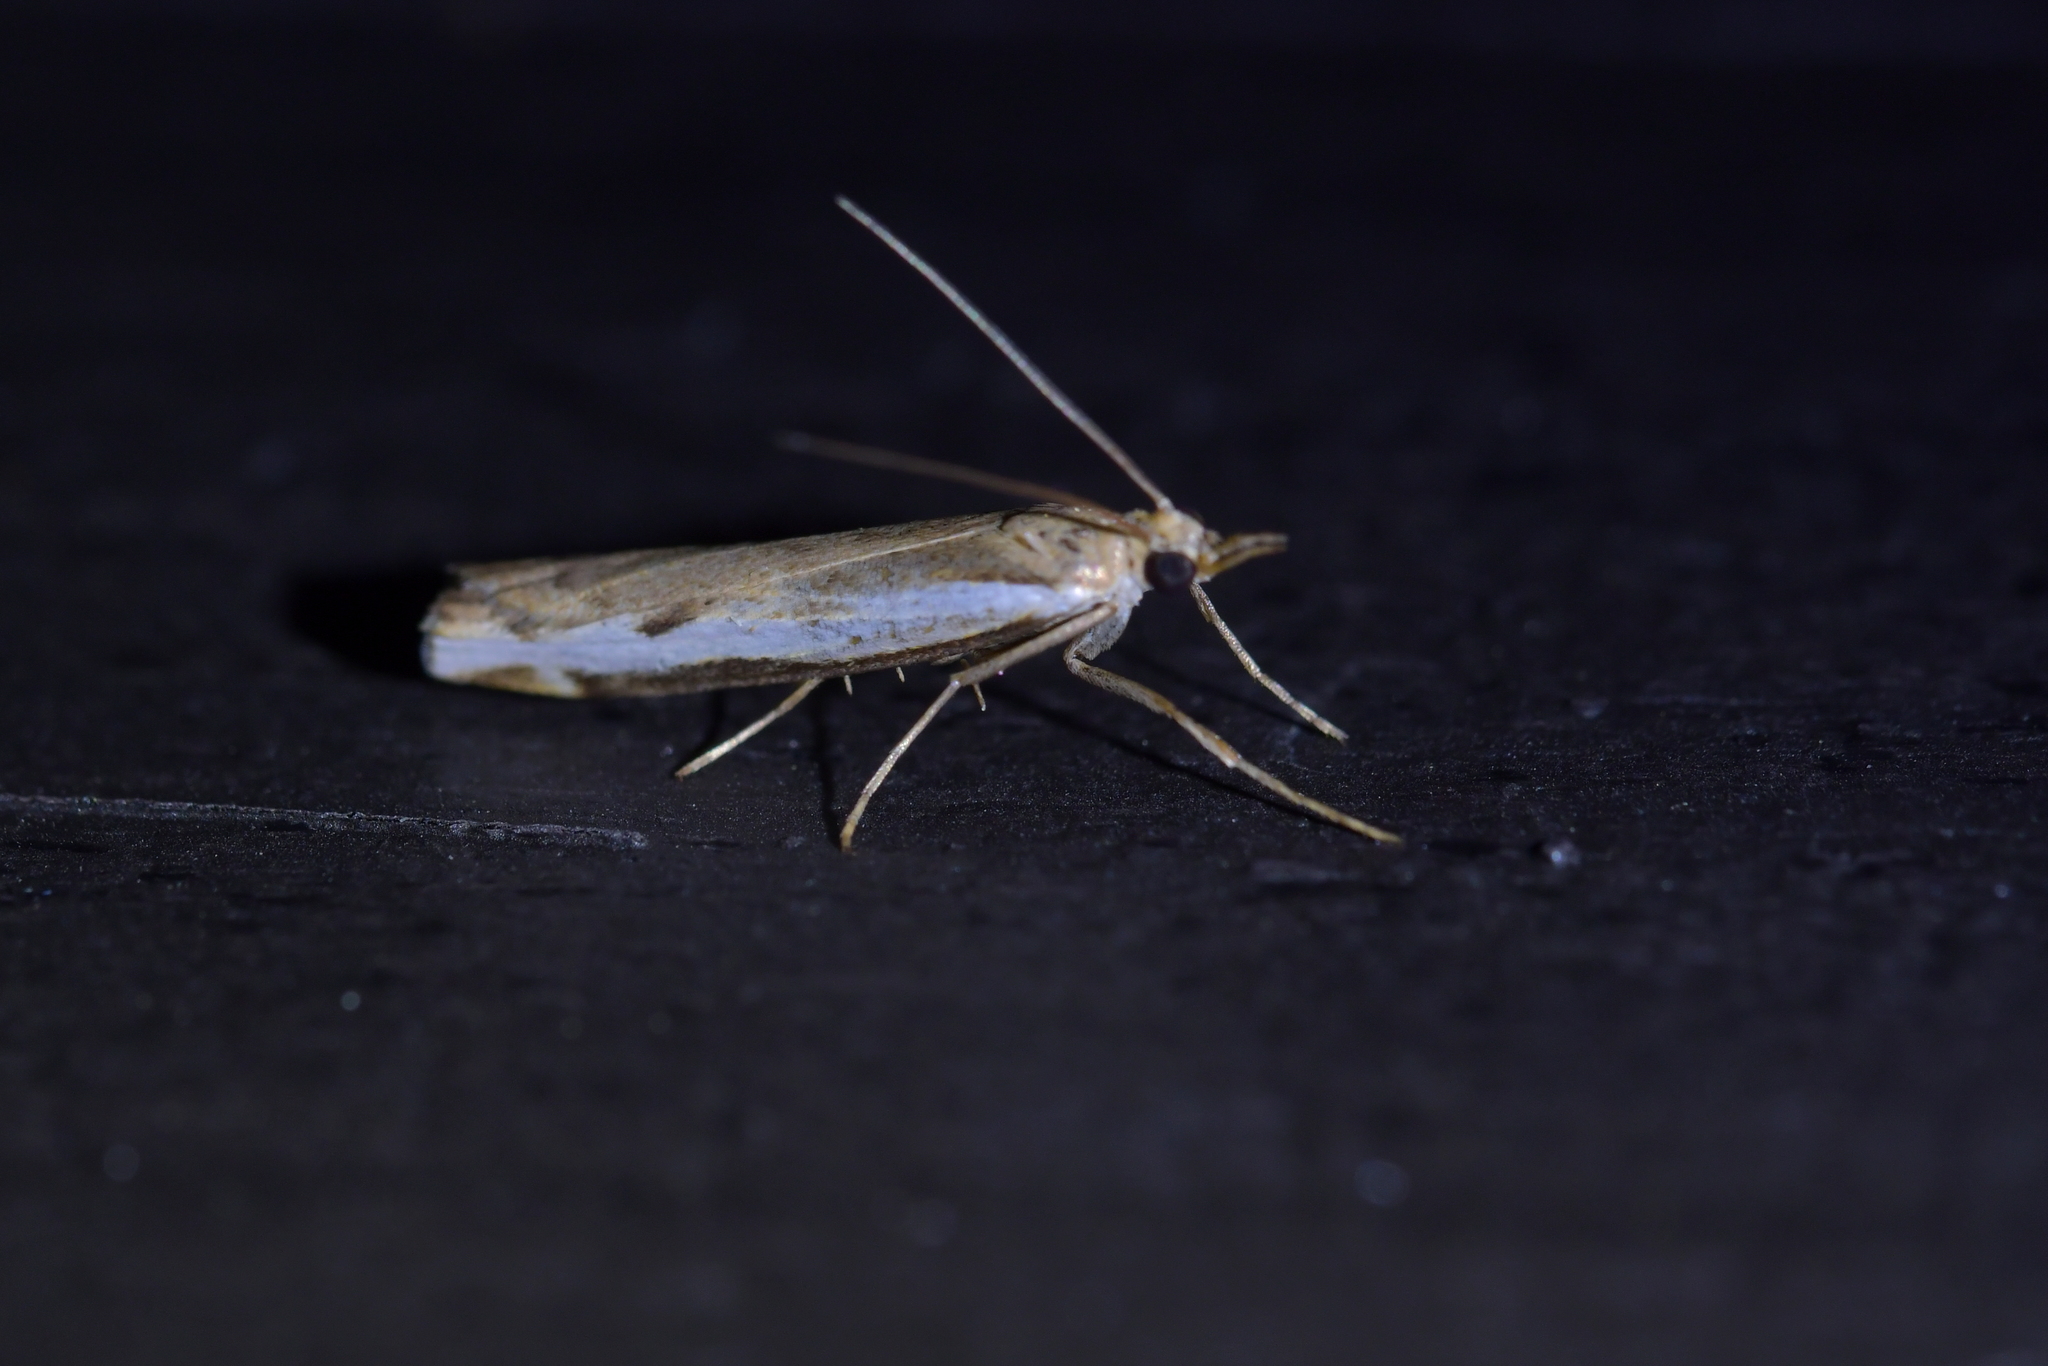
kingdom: Animalia
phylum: Arthropoda
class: Insecta
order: Lepidoptera
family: Crambidae
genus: Orocrambus
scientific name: Orocrambus flexuosellus
